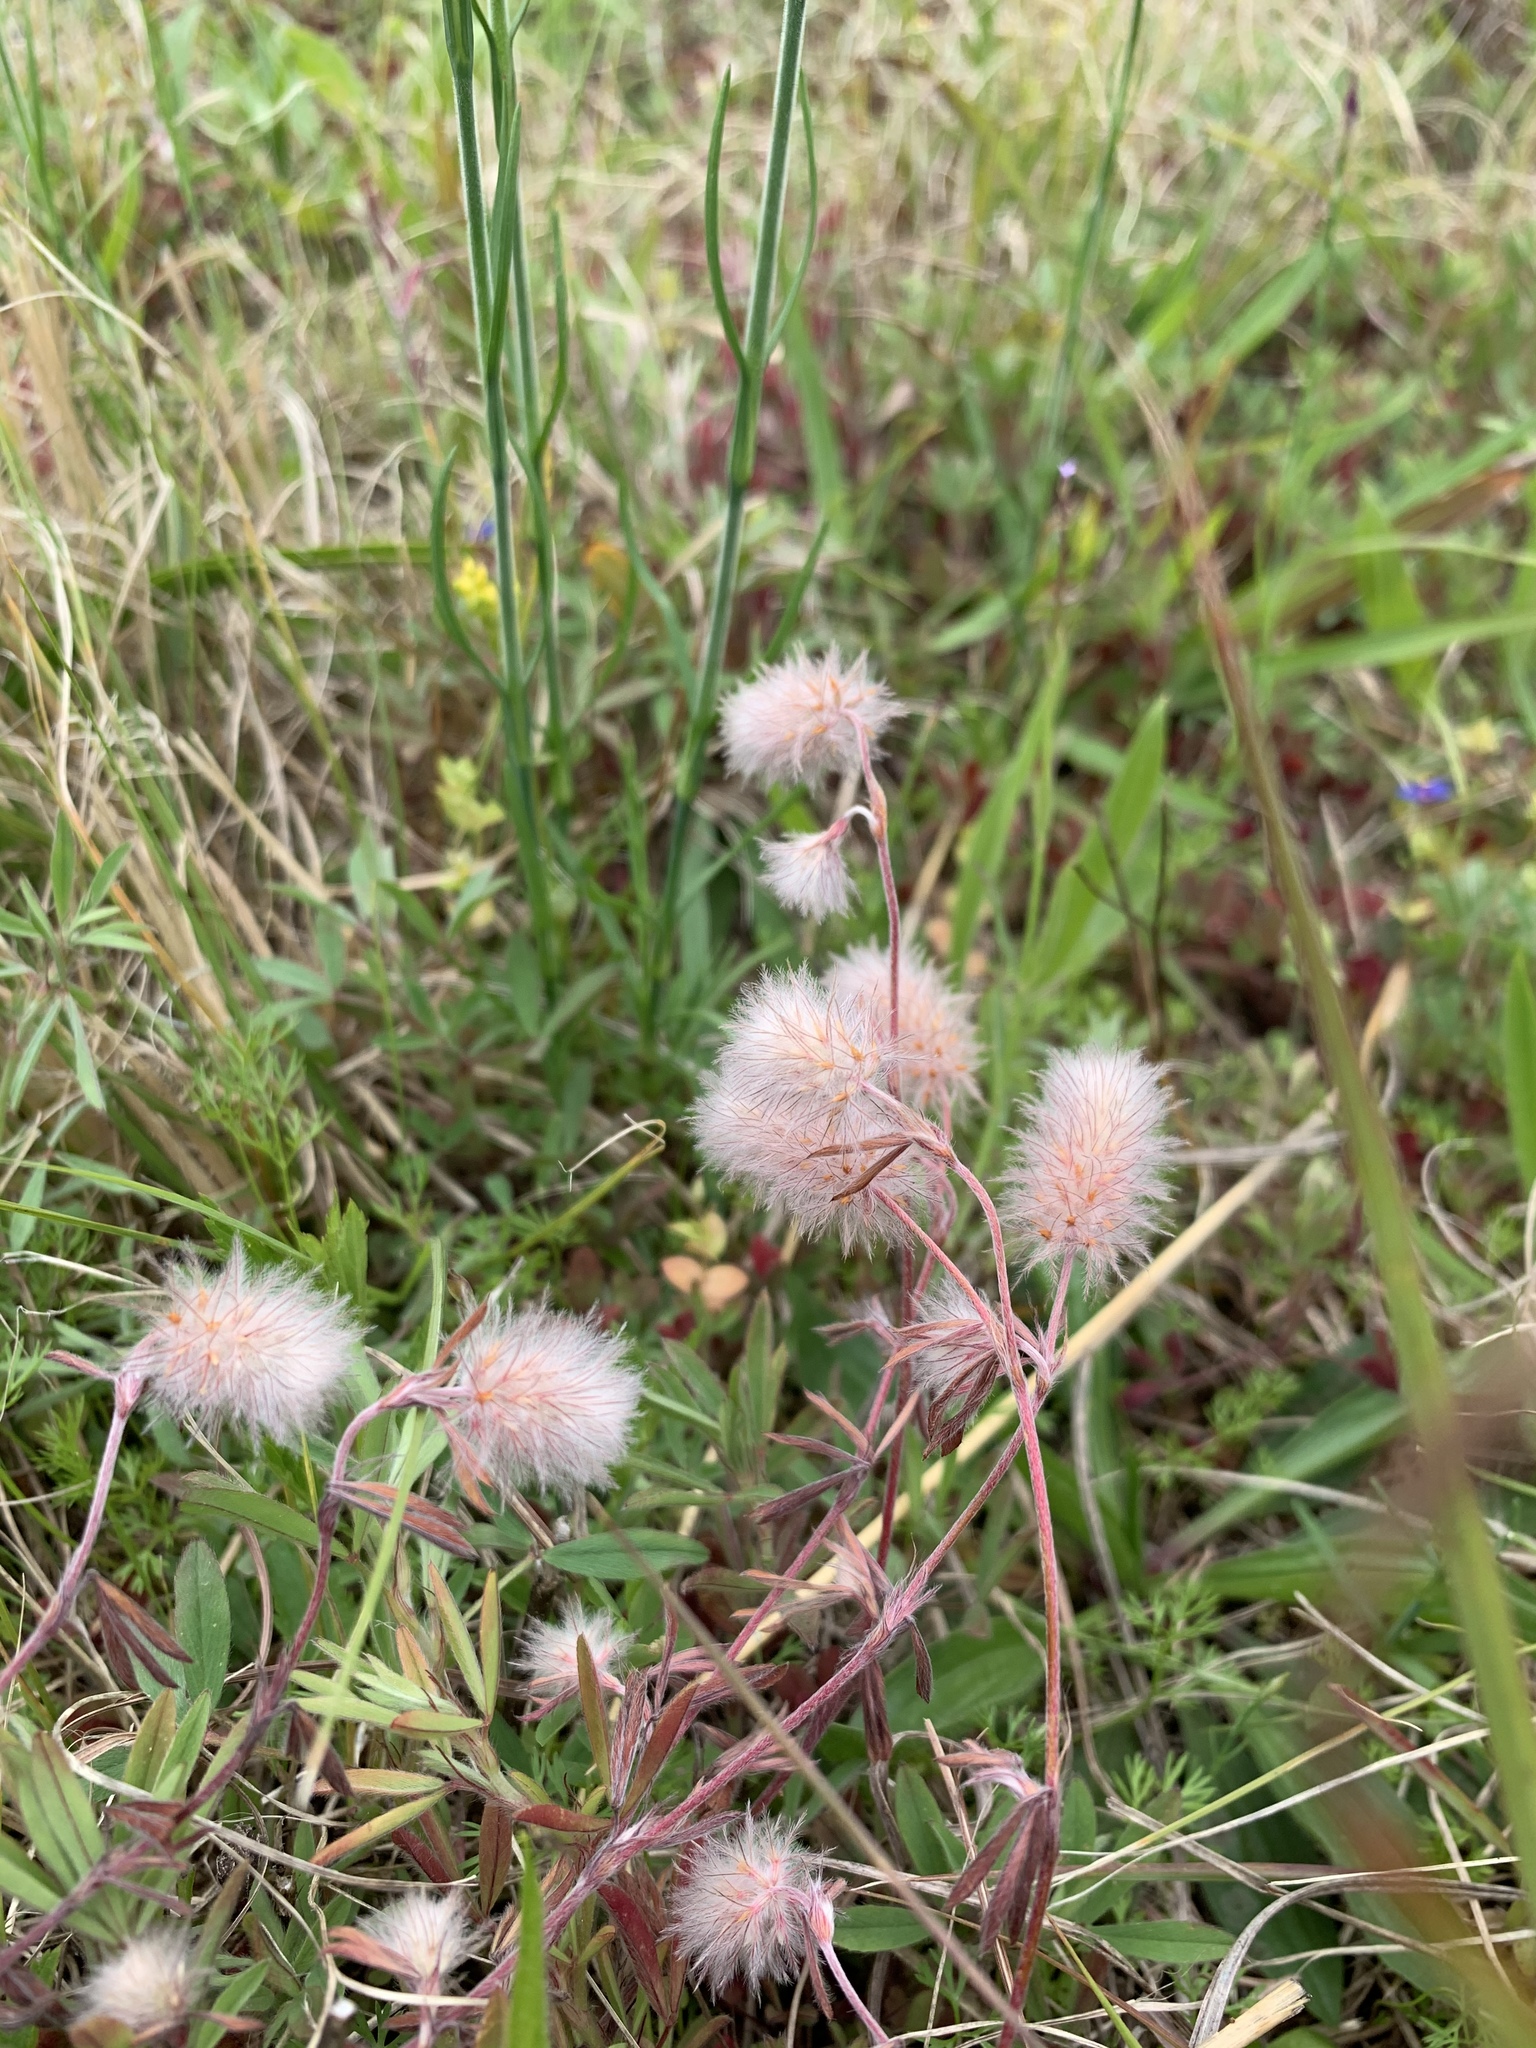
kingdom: Plantae
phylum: Tracheophyta
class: Magnoliopsida
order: Fabales
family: Fabaceae
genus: Trifolium
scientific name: Trifolium arvense
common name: Hare's-foot clover
